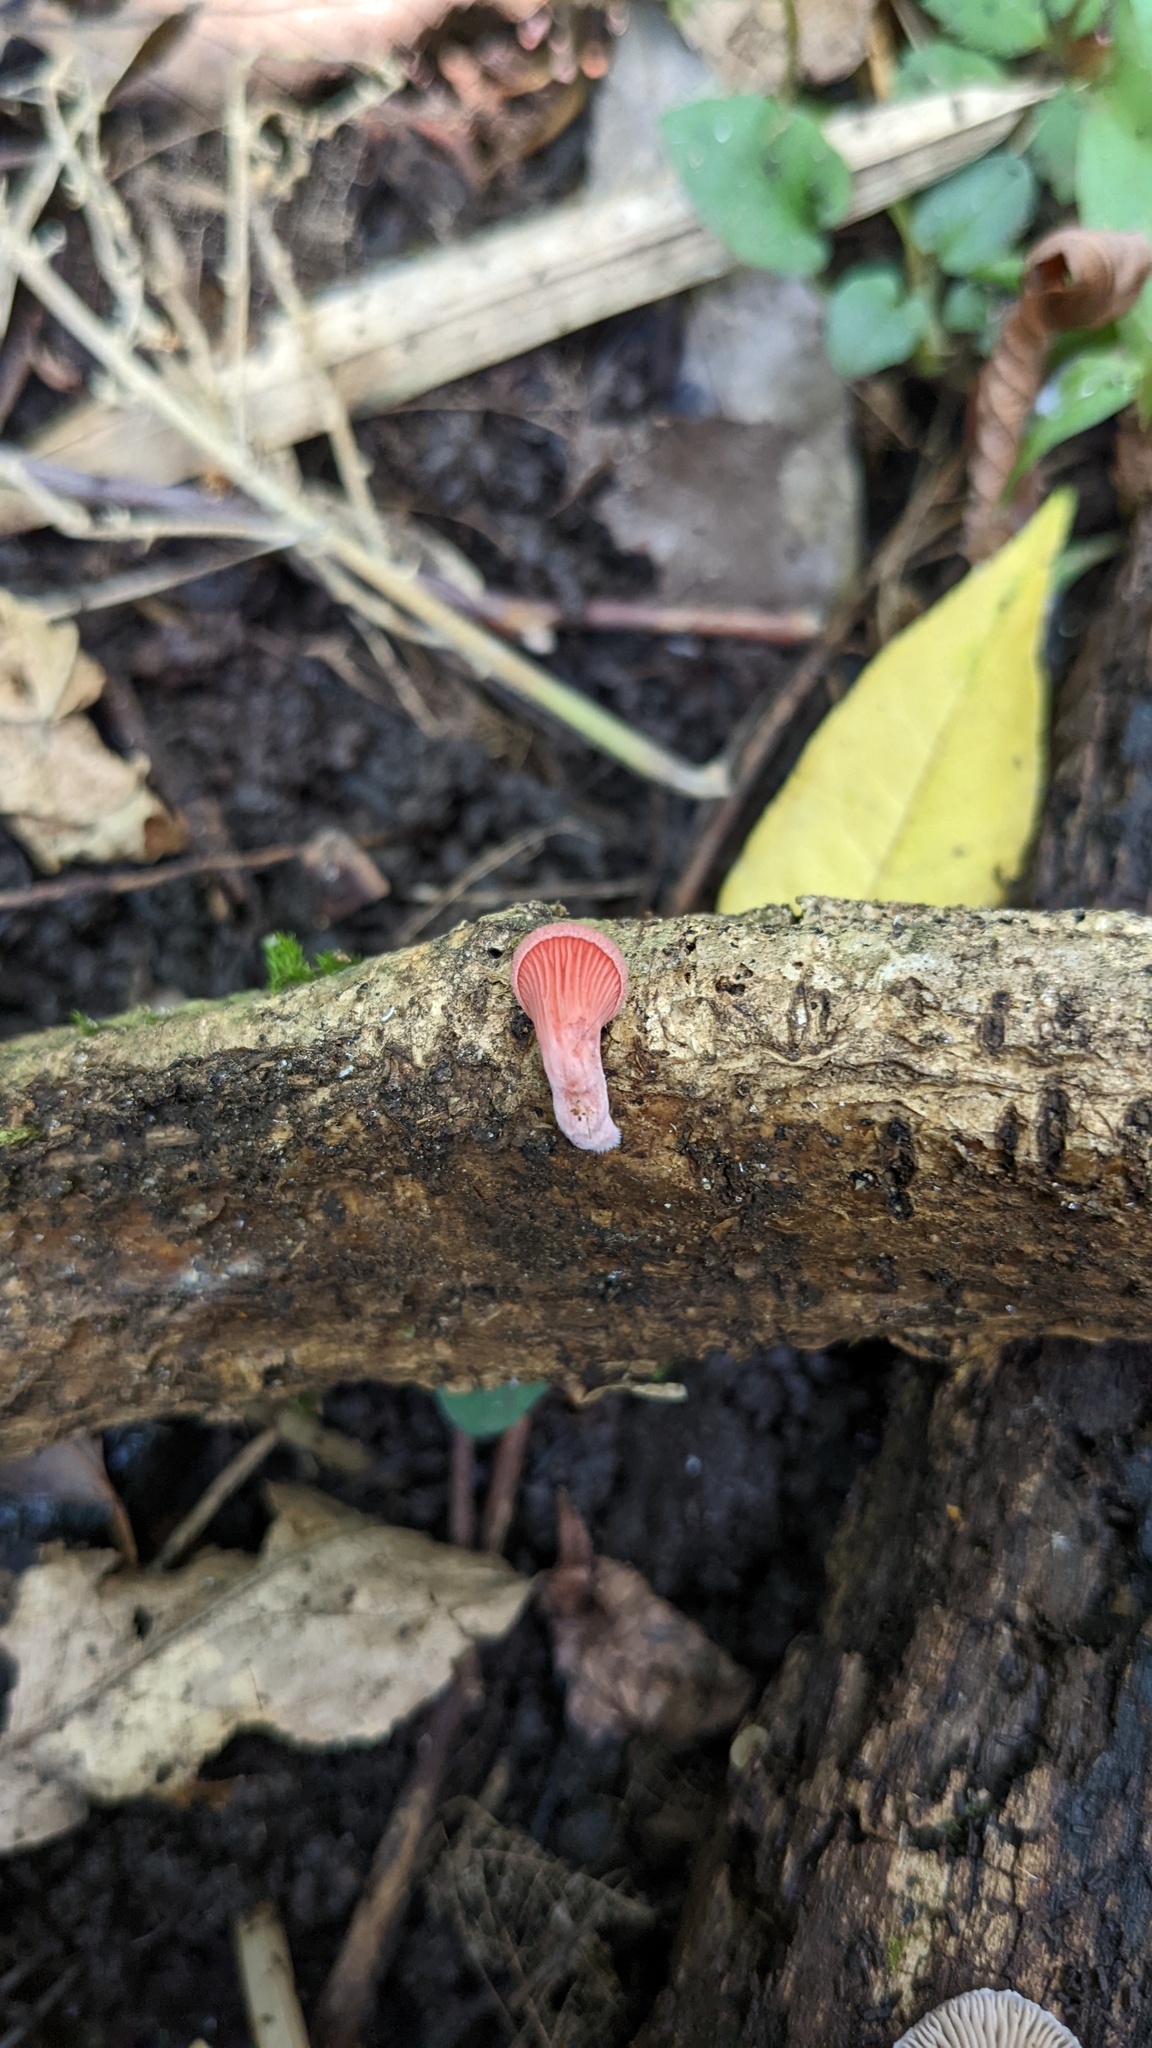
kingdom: Fungi
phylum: Basidiomycota
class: Agaricomycetes
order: Agaricales
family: Pleurotaceae
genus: Pleurotus
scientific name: Pleurotus djamor
